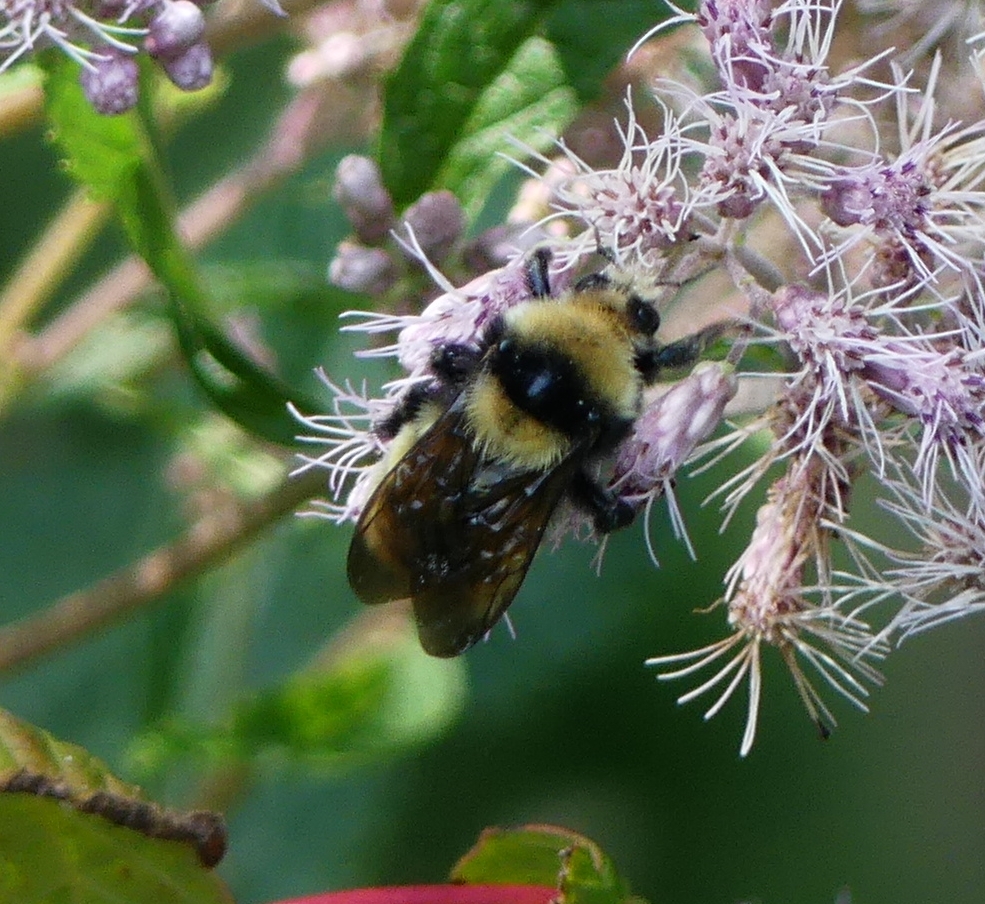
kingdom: Animalia
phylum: Arthropoda
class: Insecta
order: Hymenoptera
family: Apidae
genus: Bombus
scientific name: Bombus borealis
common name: Northern amber bumble bee
